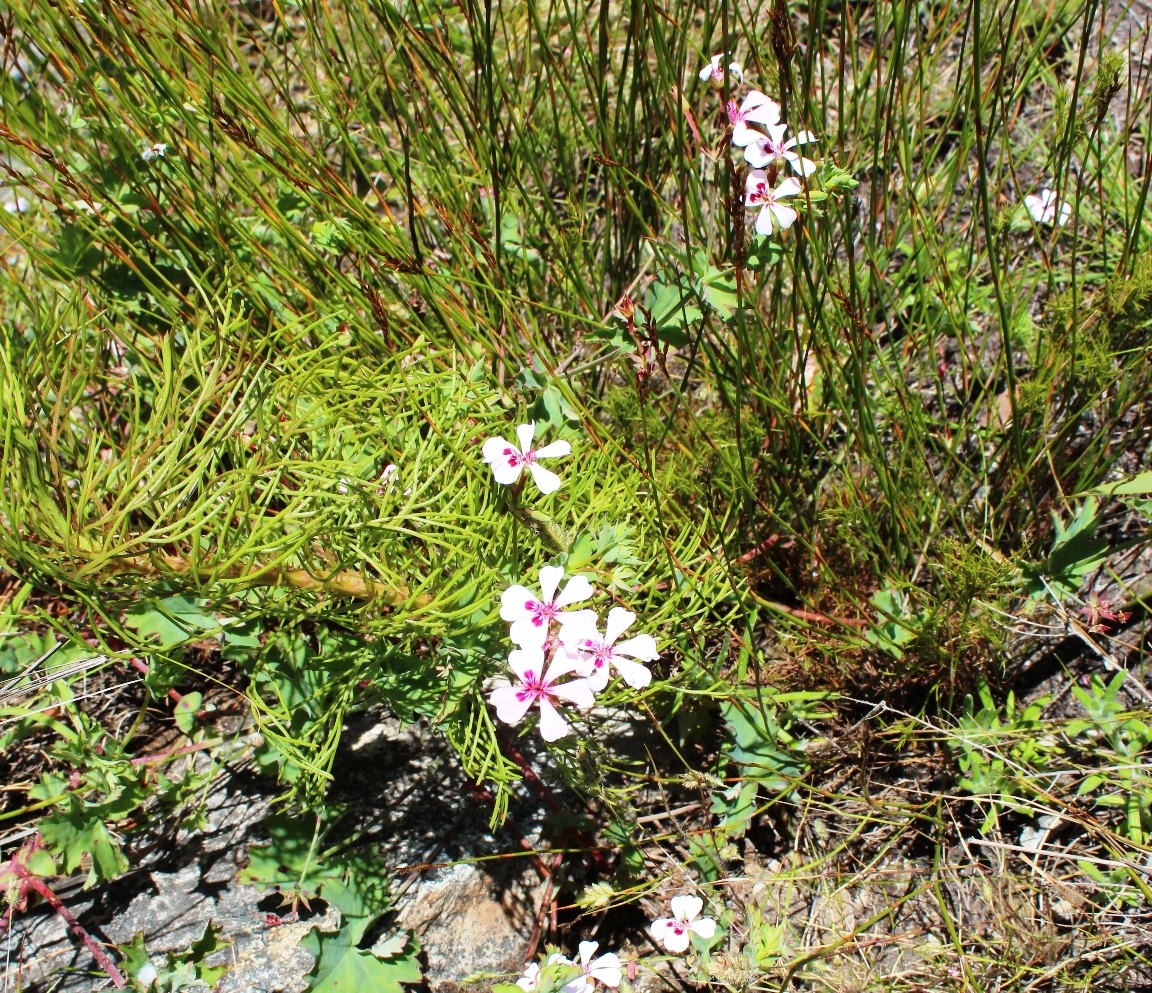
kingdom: Plantae
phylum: Tracheophyta
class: Magnoliopsida
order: Geraniales
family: Geraniaceae
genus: Pelargonium
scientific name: Pelargonium patulum
